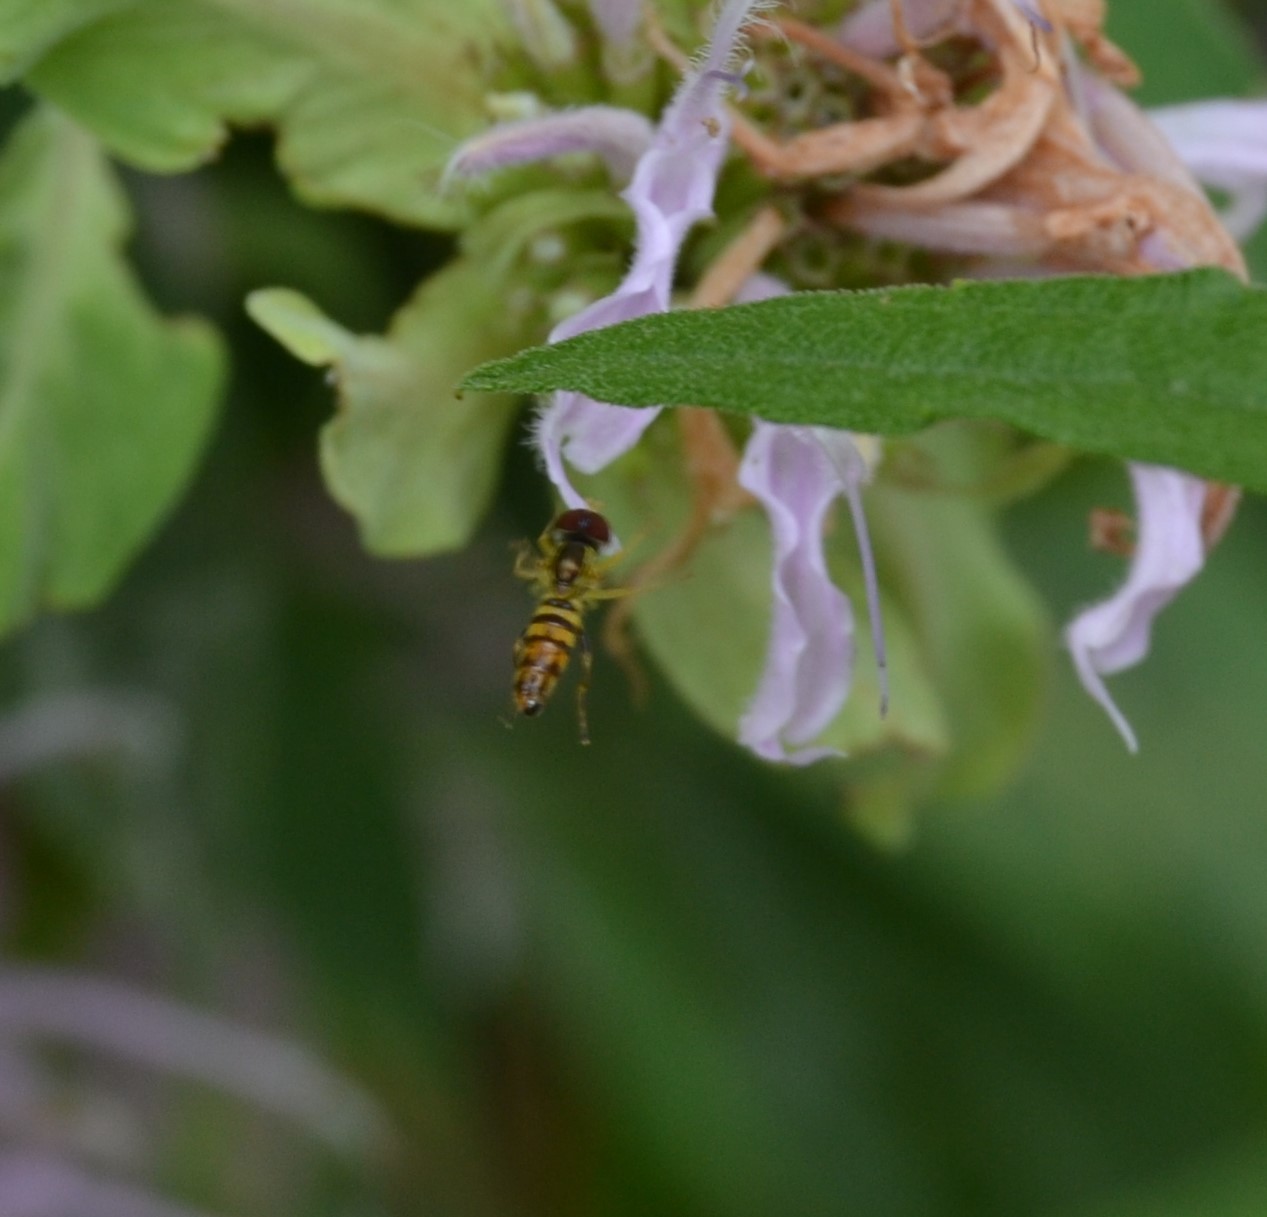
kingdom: Animalia
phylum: Arthropoda
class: Insecta
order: Diptera
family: Syrphidae
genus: Toxomerus
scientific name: Toxomerus geminatus
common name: Eastern calligrapher
